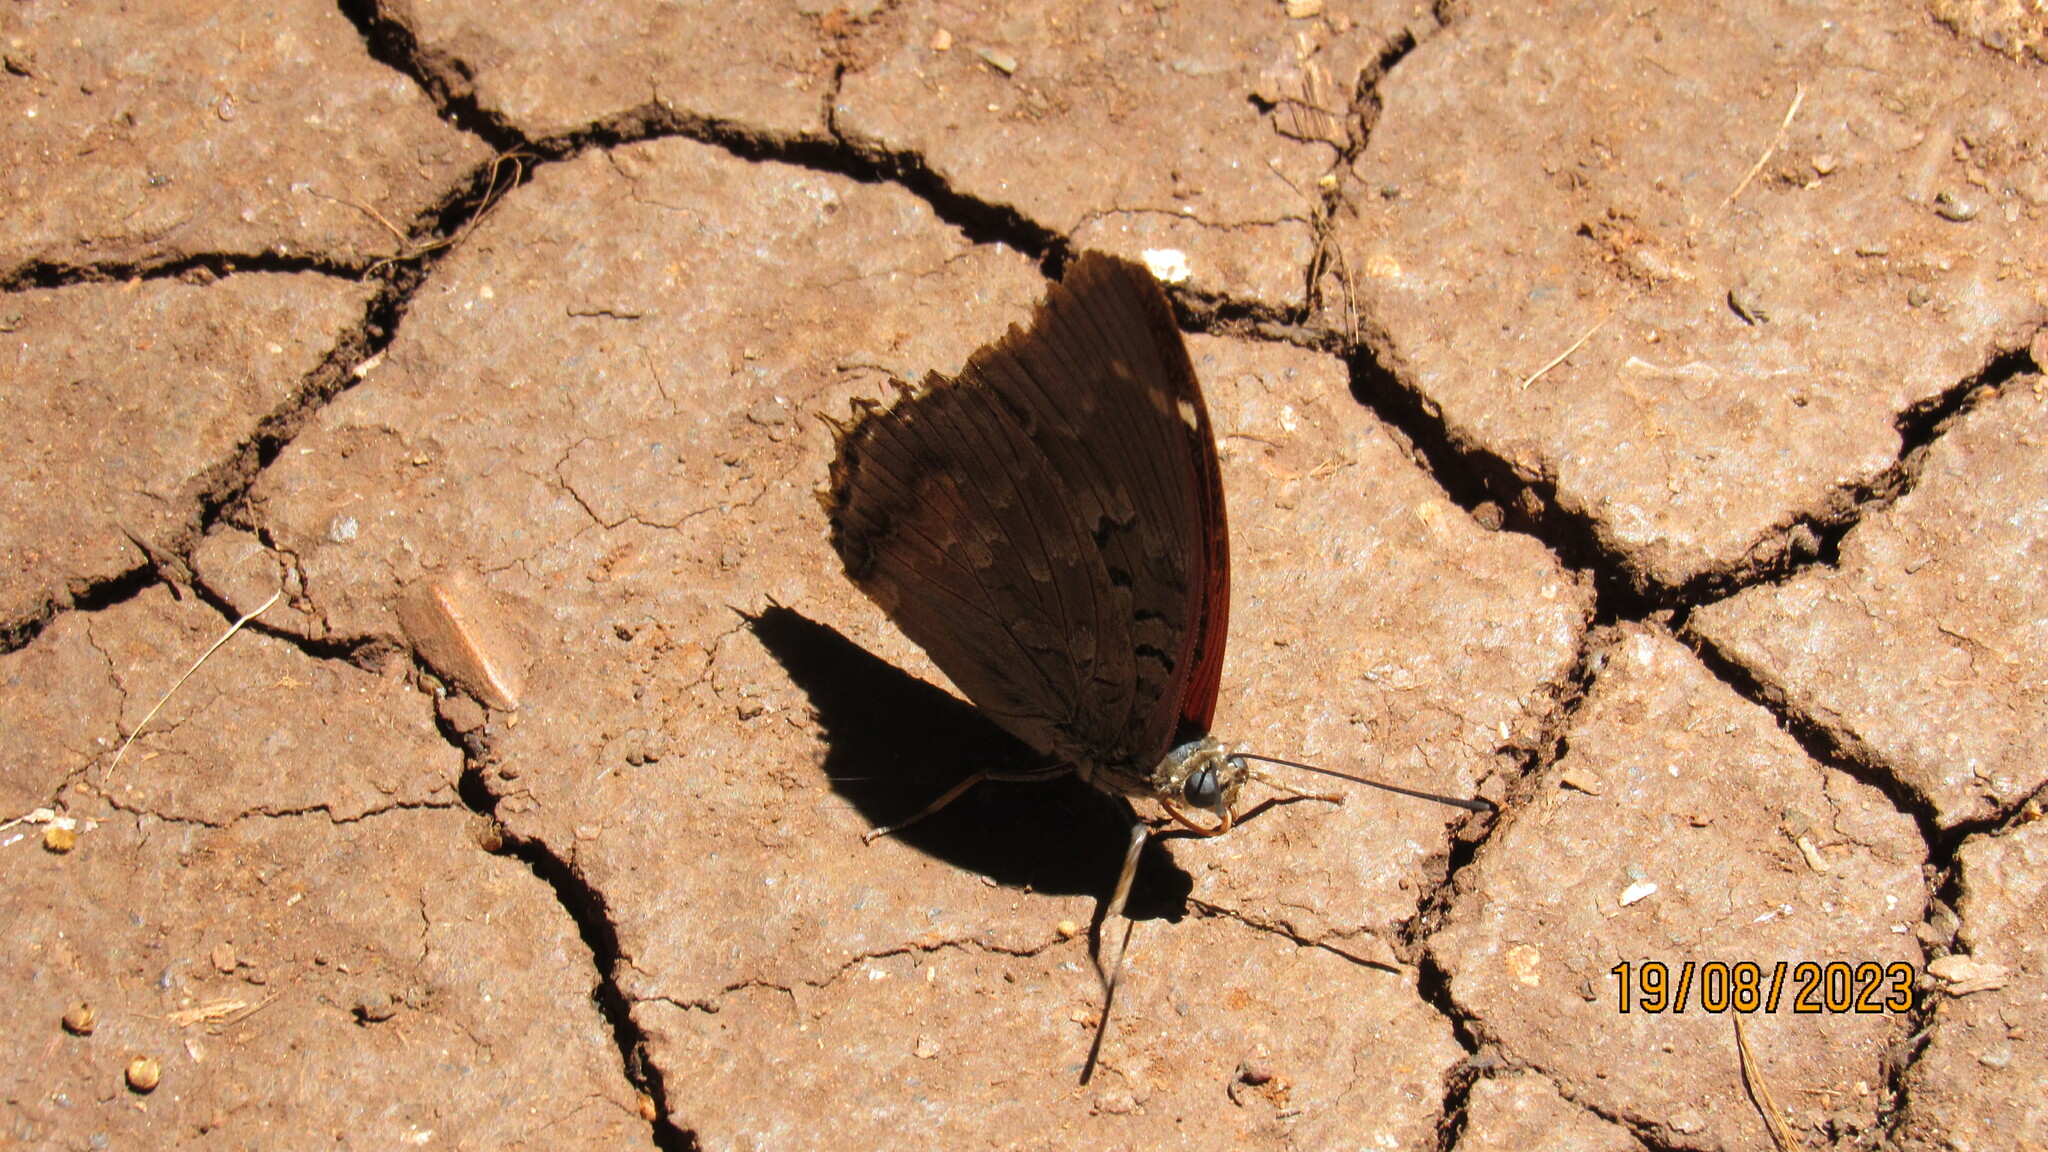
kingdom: Animalia
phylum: Arthropoda
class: Insecta
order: Lepidoptera
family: Nymphalidae
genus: Coea
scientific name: Coea acheronta
